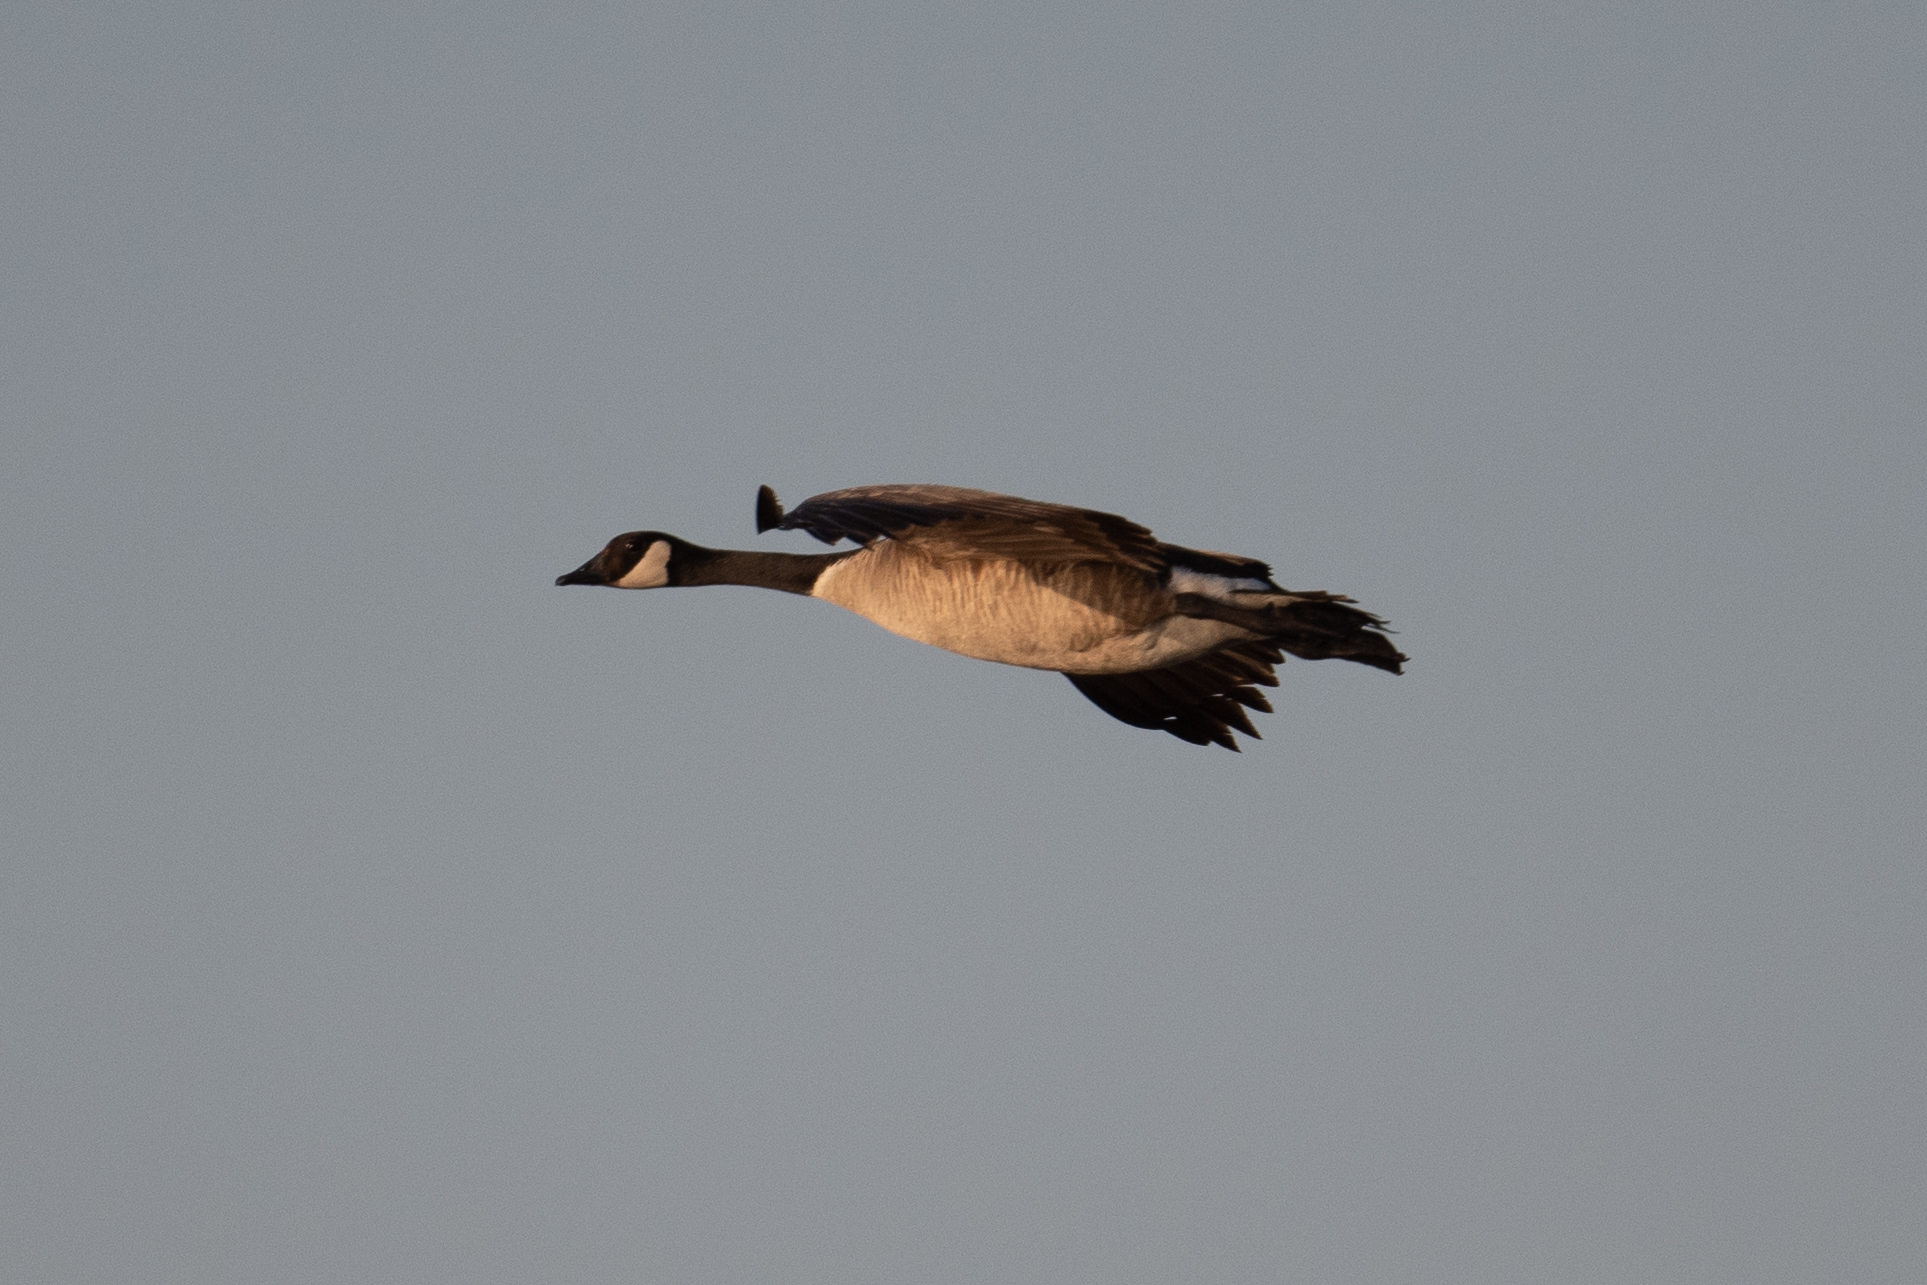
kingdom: Animalia
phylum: Chordata
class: Aves
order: Anseriformes
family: Anatidae
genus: Branta
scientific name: Branta canadensis
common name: Canada goose
